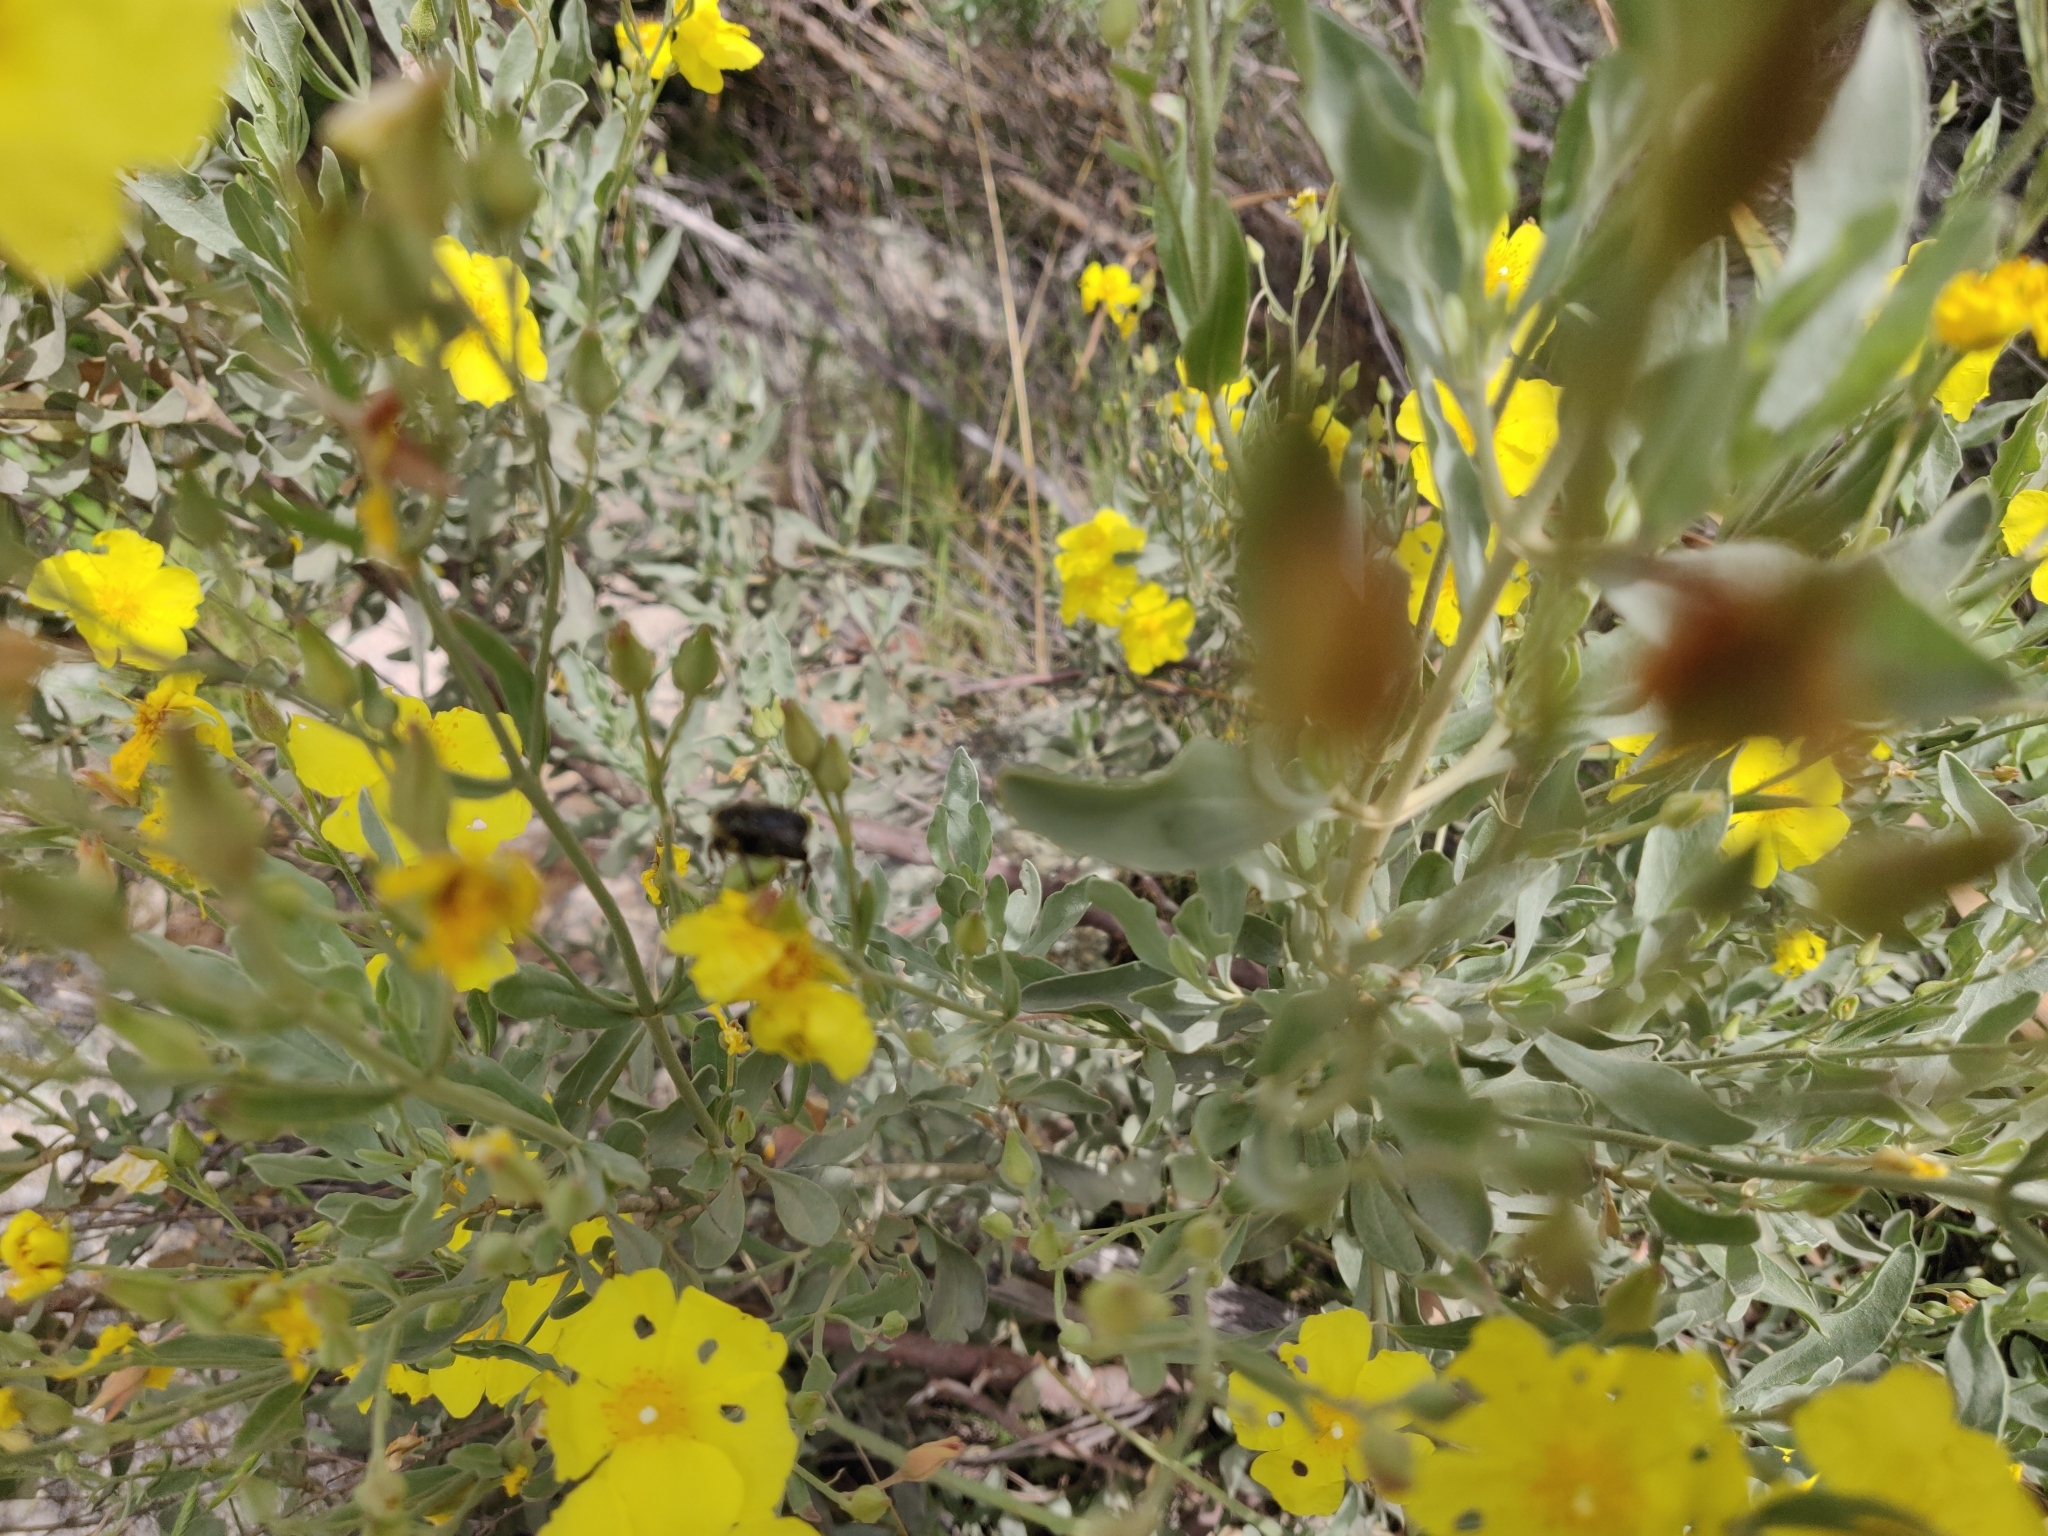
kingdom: Plantae
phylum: Tracheophyta
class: Magnoliopsida
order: Malvales
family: Cistaceae
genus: Halimium
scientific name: Halimium halimifolium
